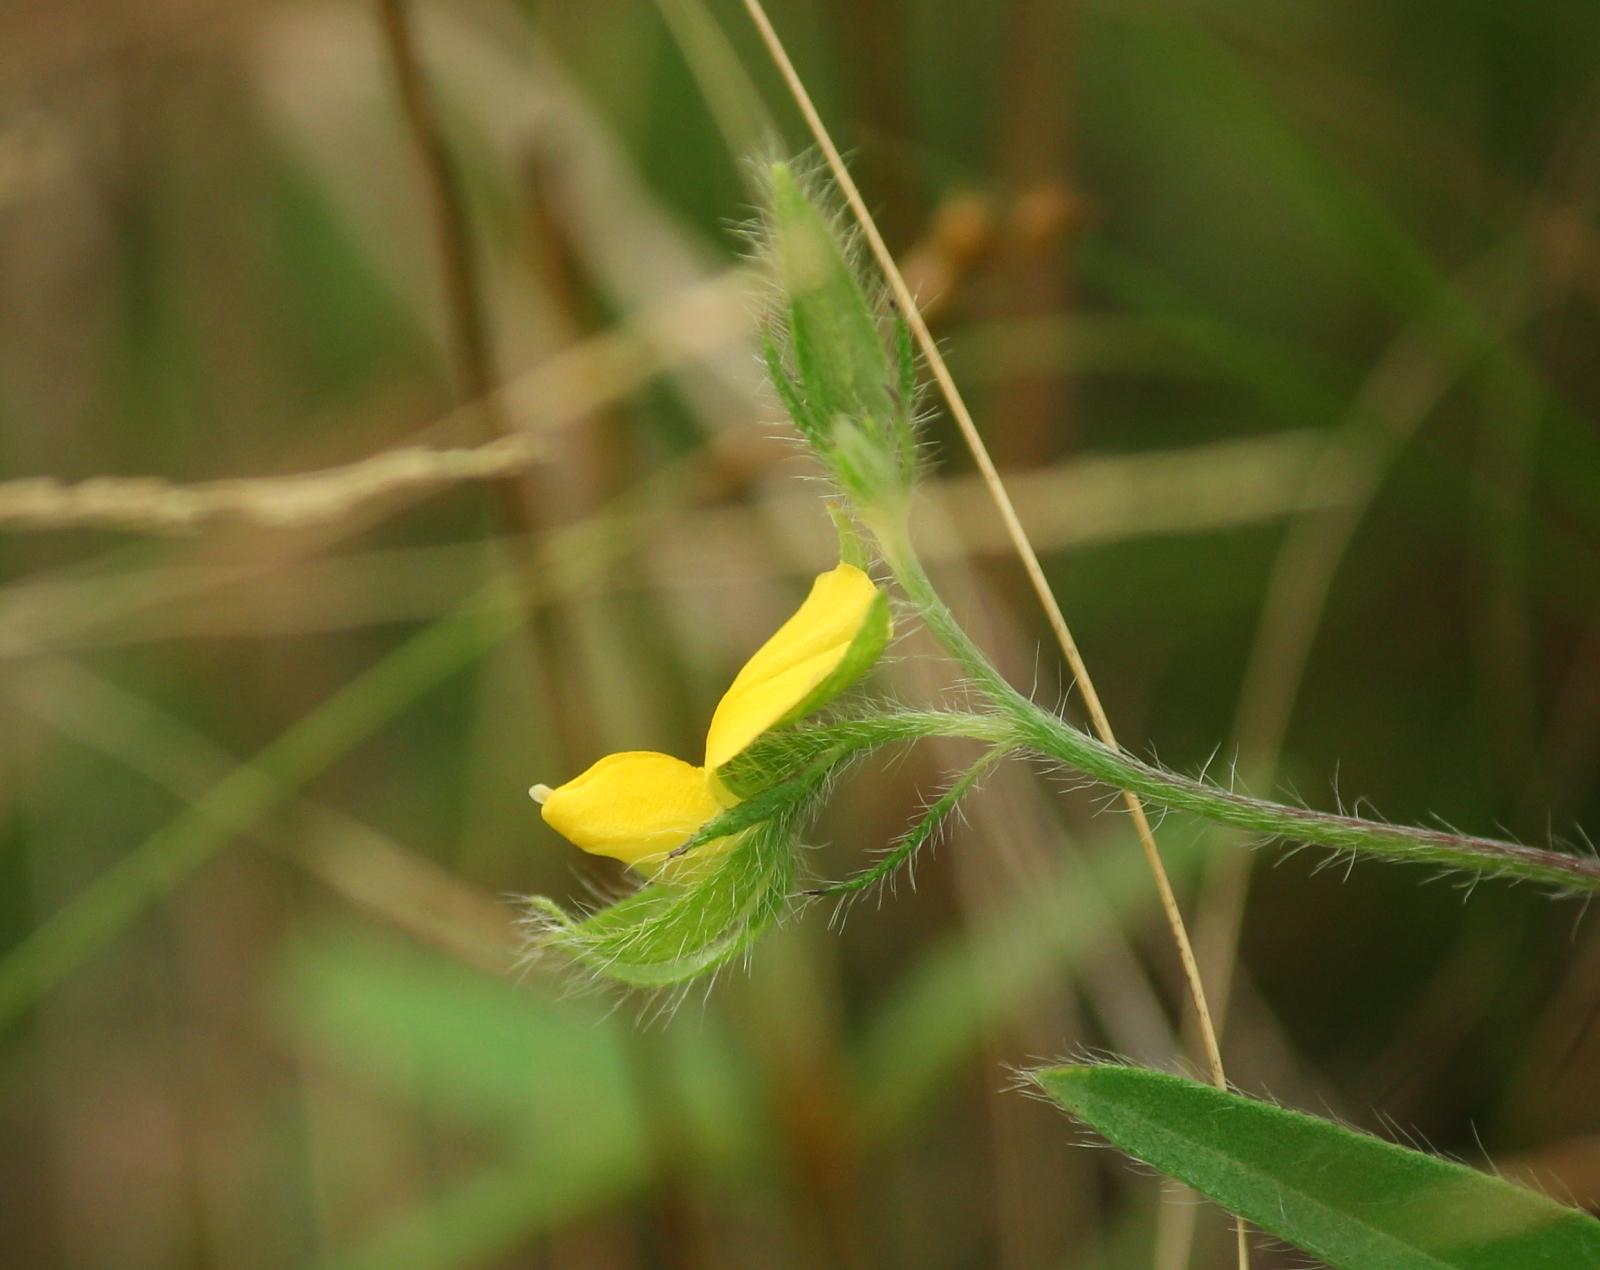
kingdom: Plantae
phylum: Tracheophyta
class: Magnoliopsida
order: Fabales
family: Fabaceae
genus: Crotalaria
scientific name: Crotalaria sagittalis
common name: Arrowhead rattlebox
